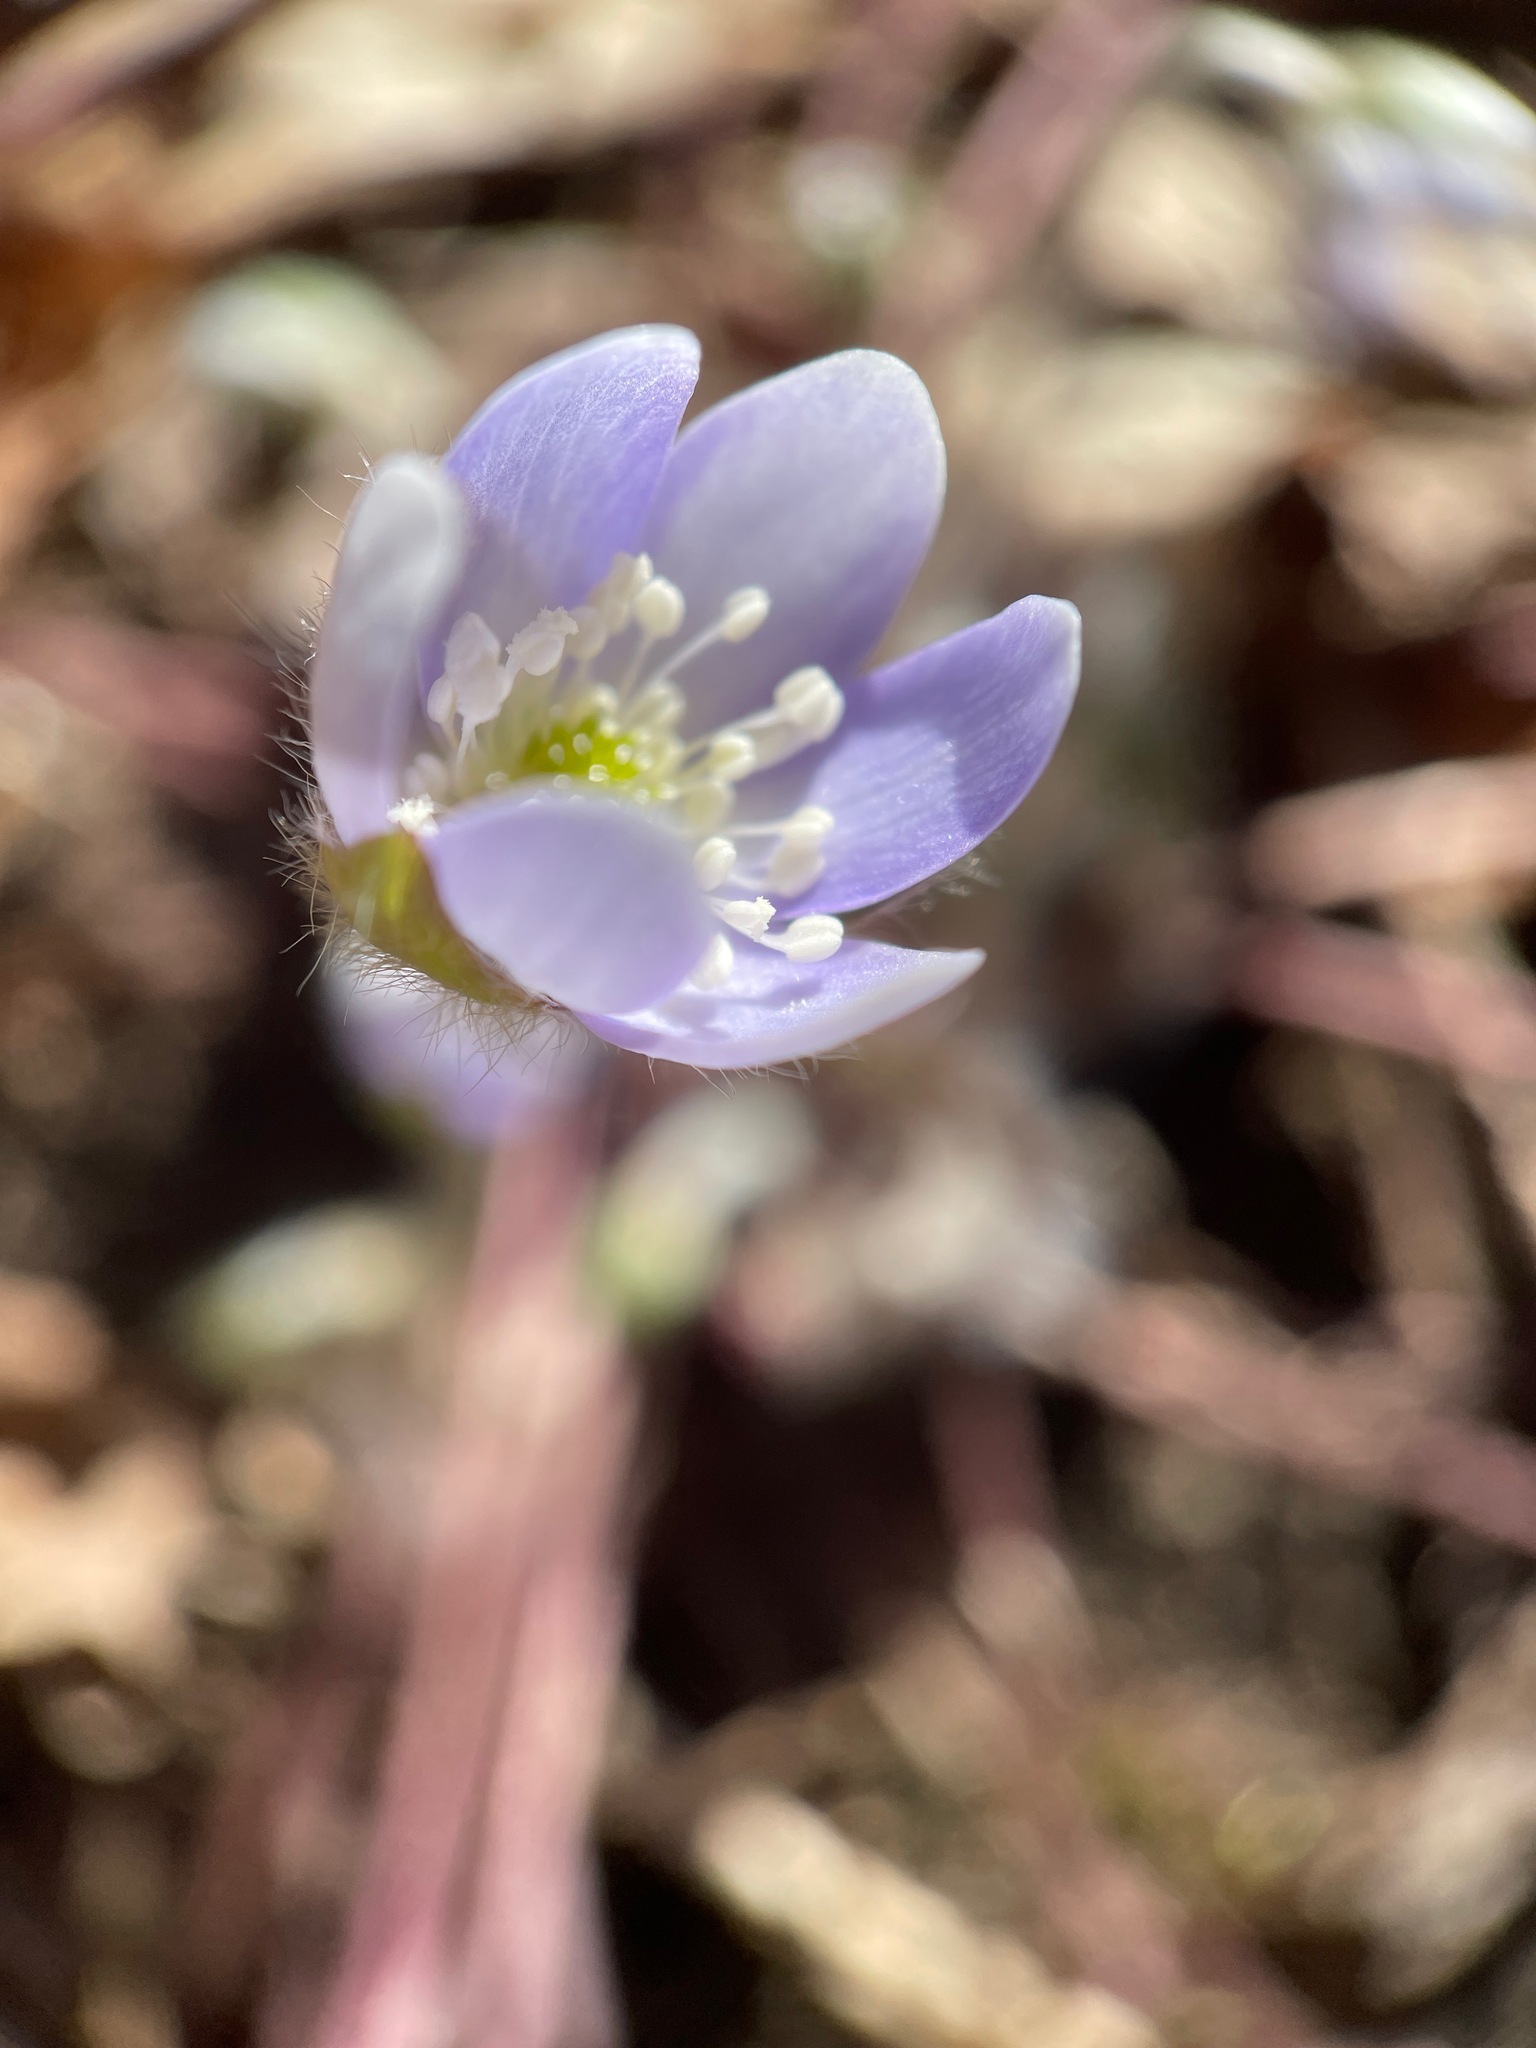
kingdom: Plantae
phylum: Tracheophyta
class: Magnoliopsida
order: Ranunculales
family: Ranunculaceae
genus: Hepatica
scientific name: Hepatica acutiloba
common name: Sharp-lobed hepatica
